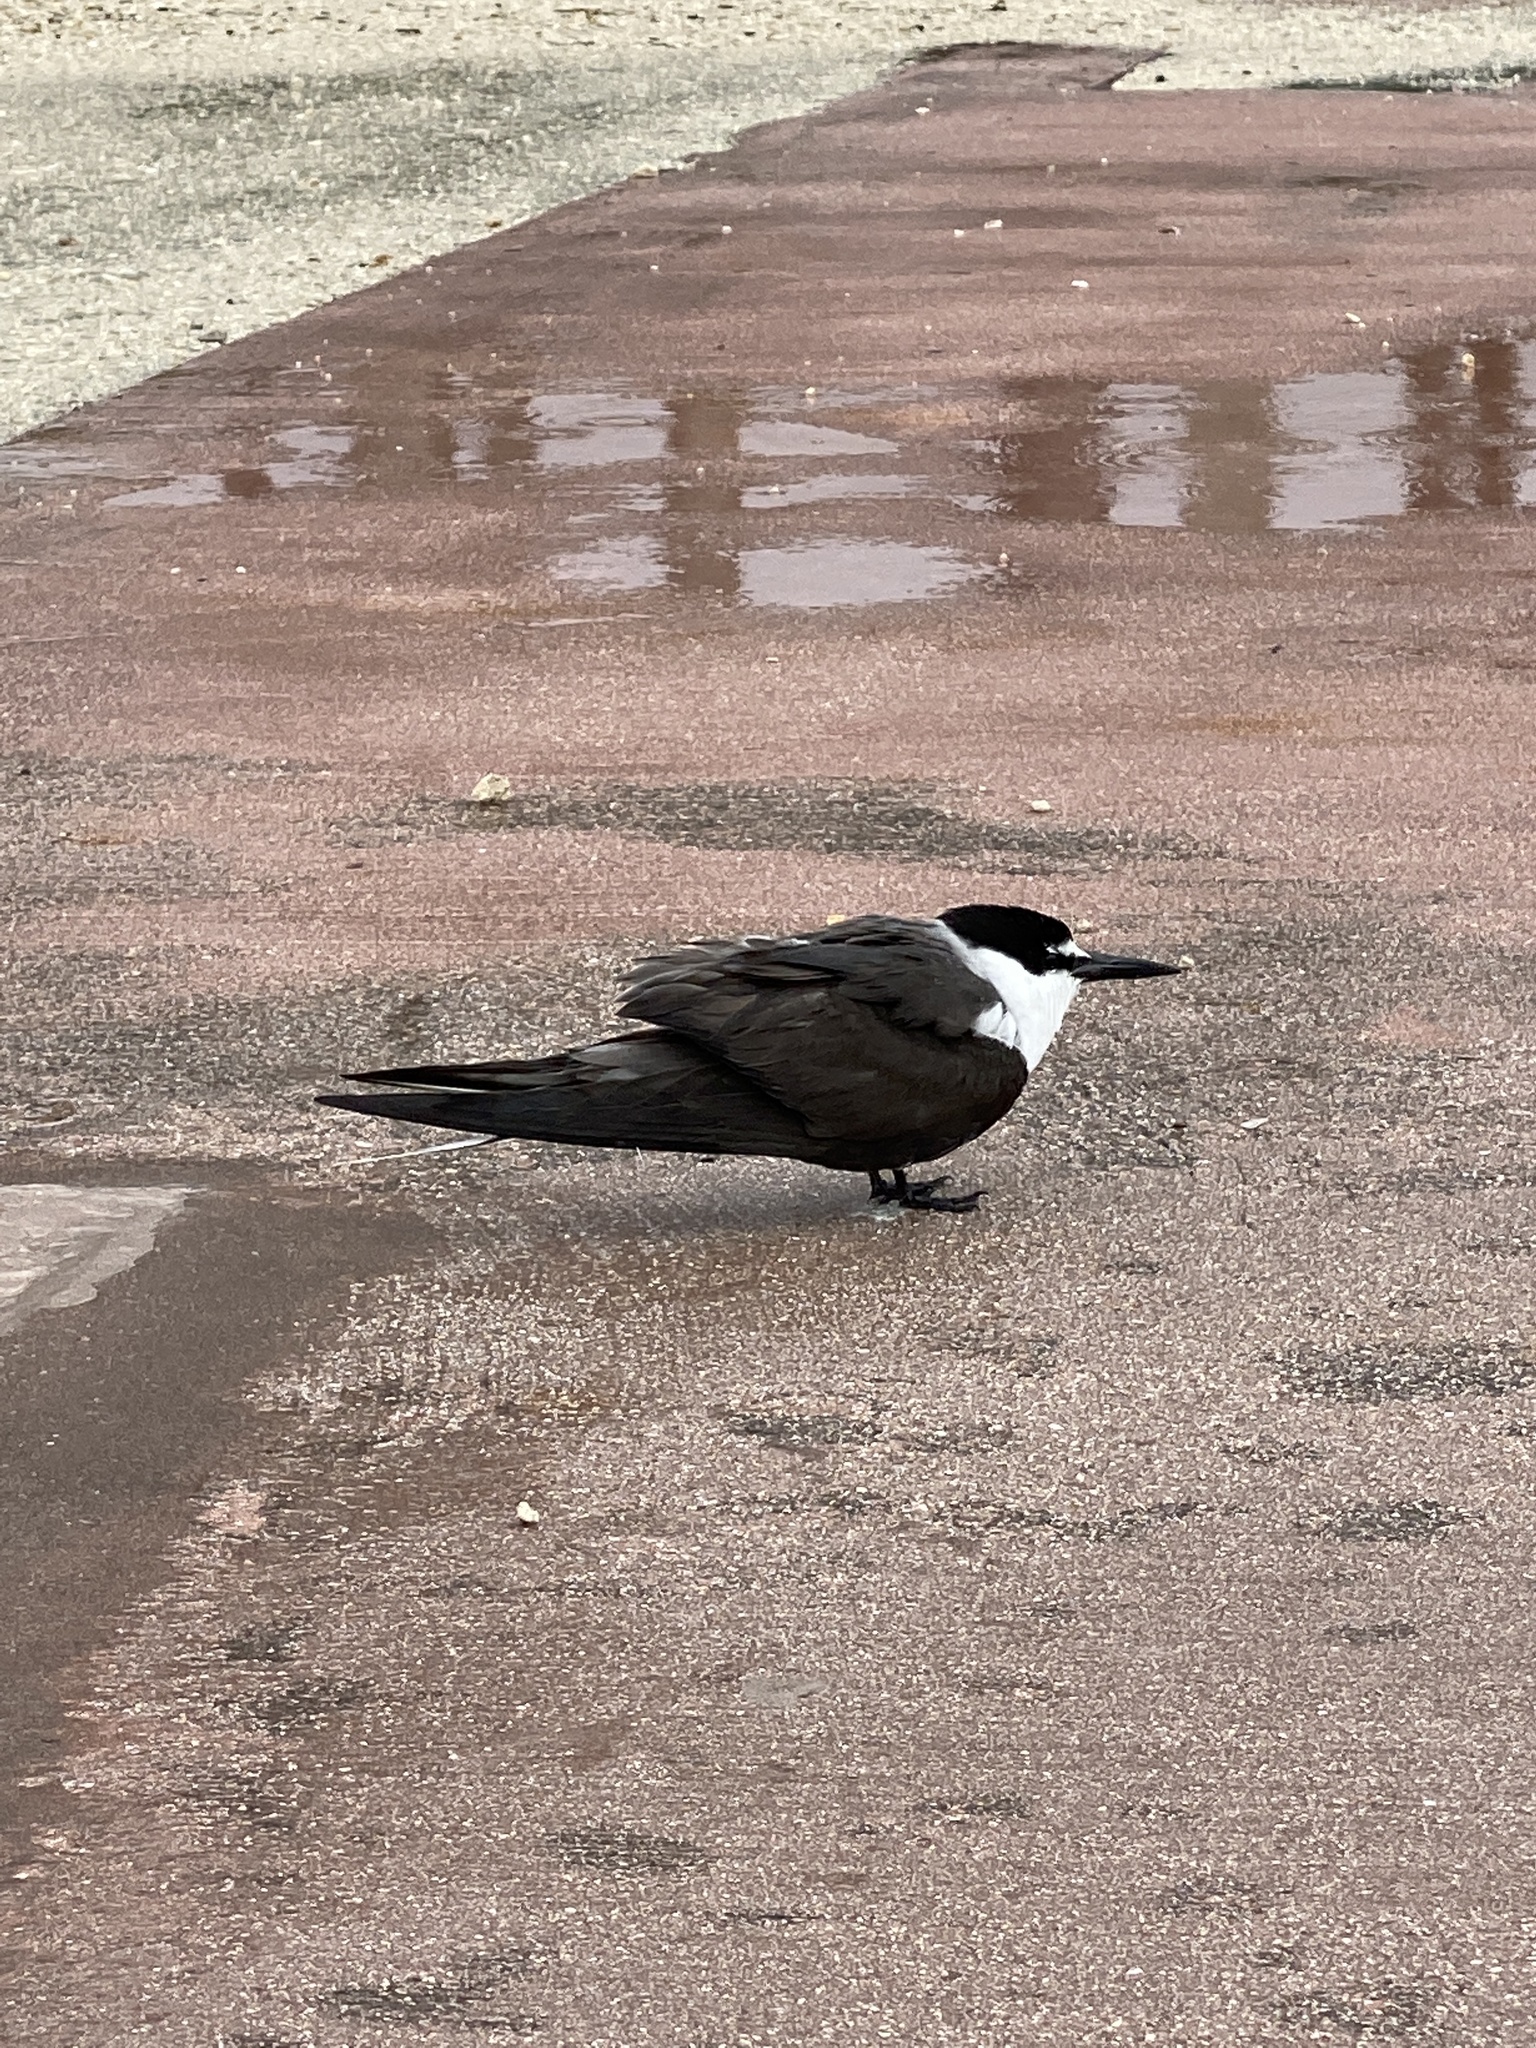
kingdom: Animalia
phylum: Chordata
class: Aves
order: Charadriiformes
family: Laridae
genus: Onychoprion
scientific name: Onychoprion anaethetus
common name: Bridled tern
